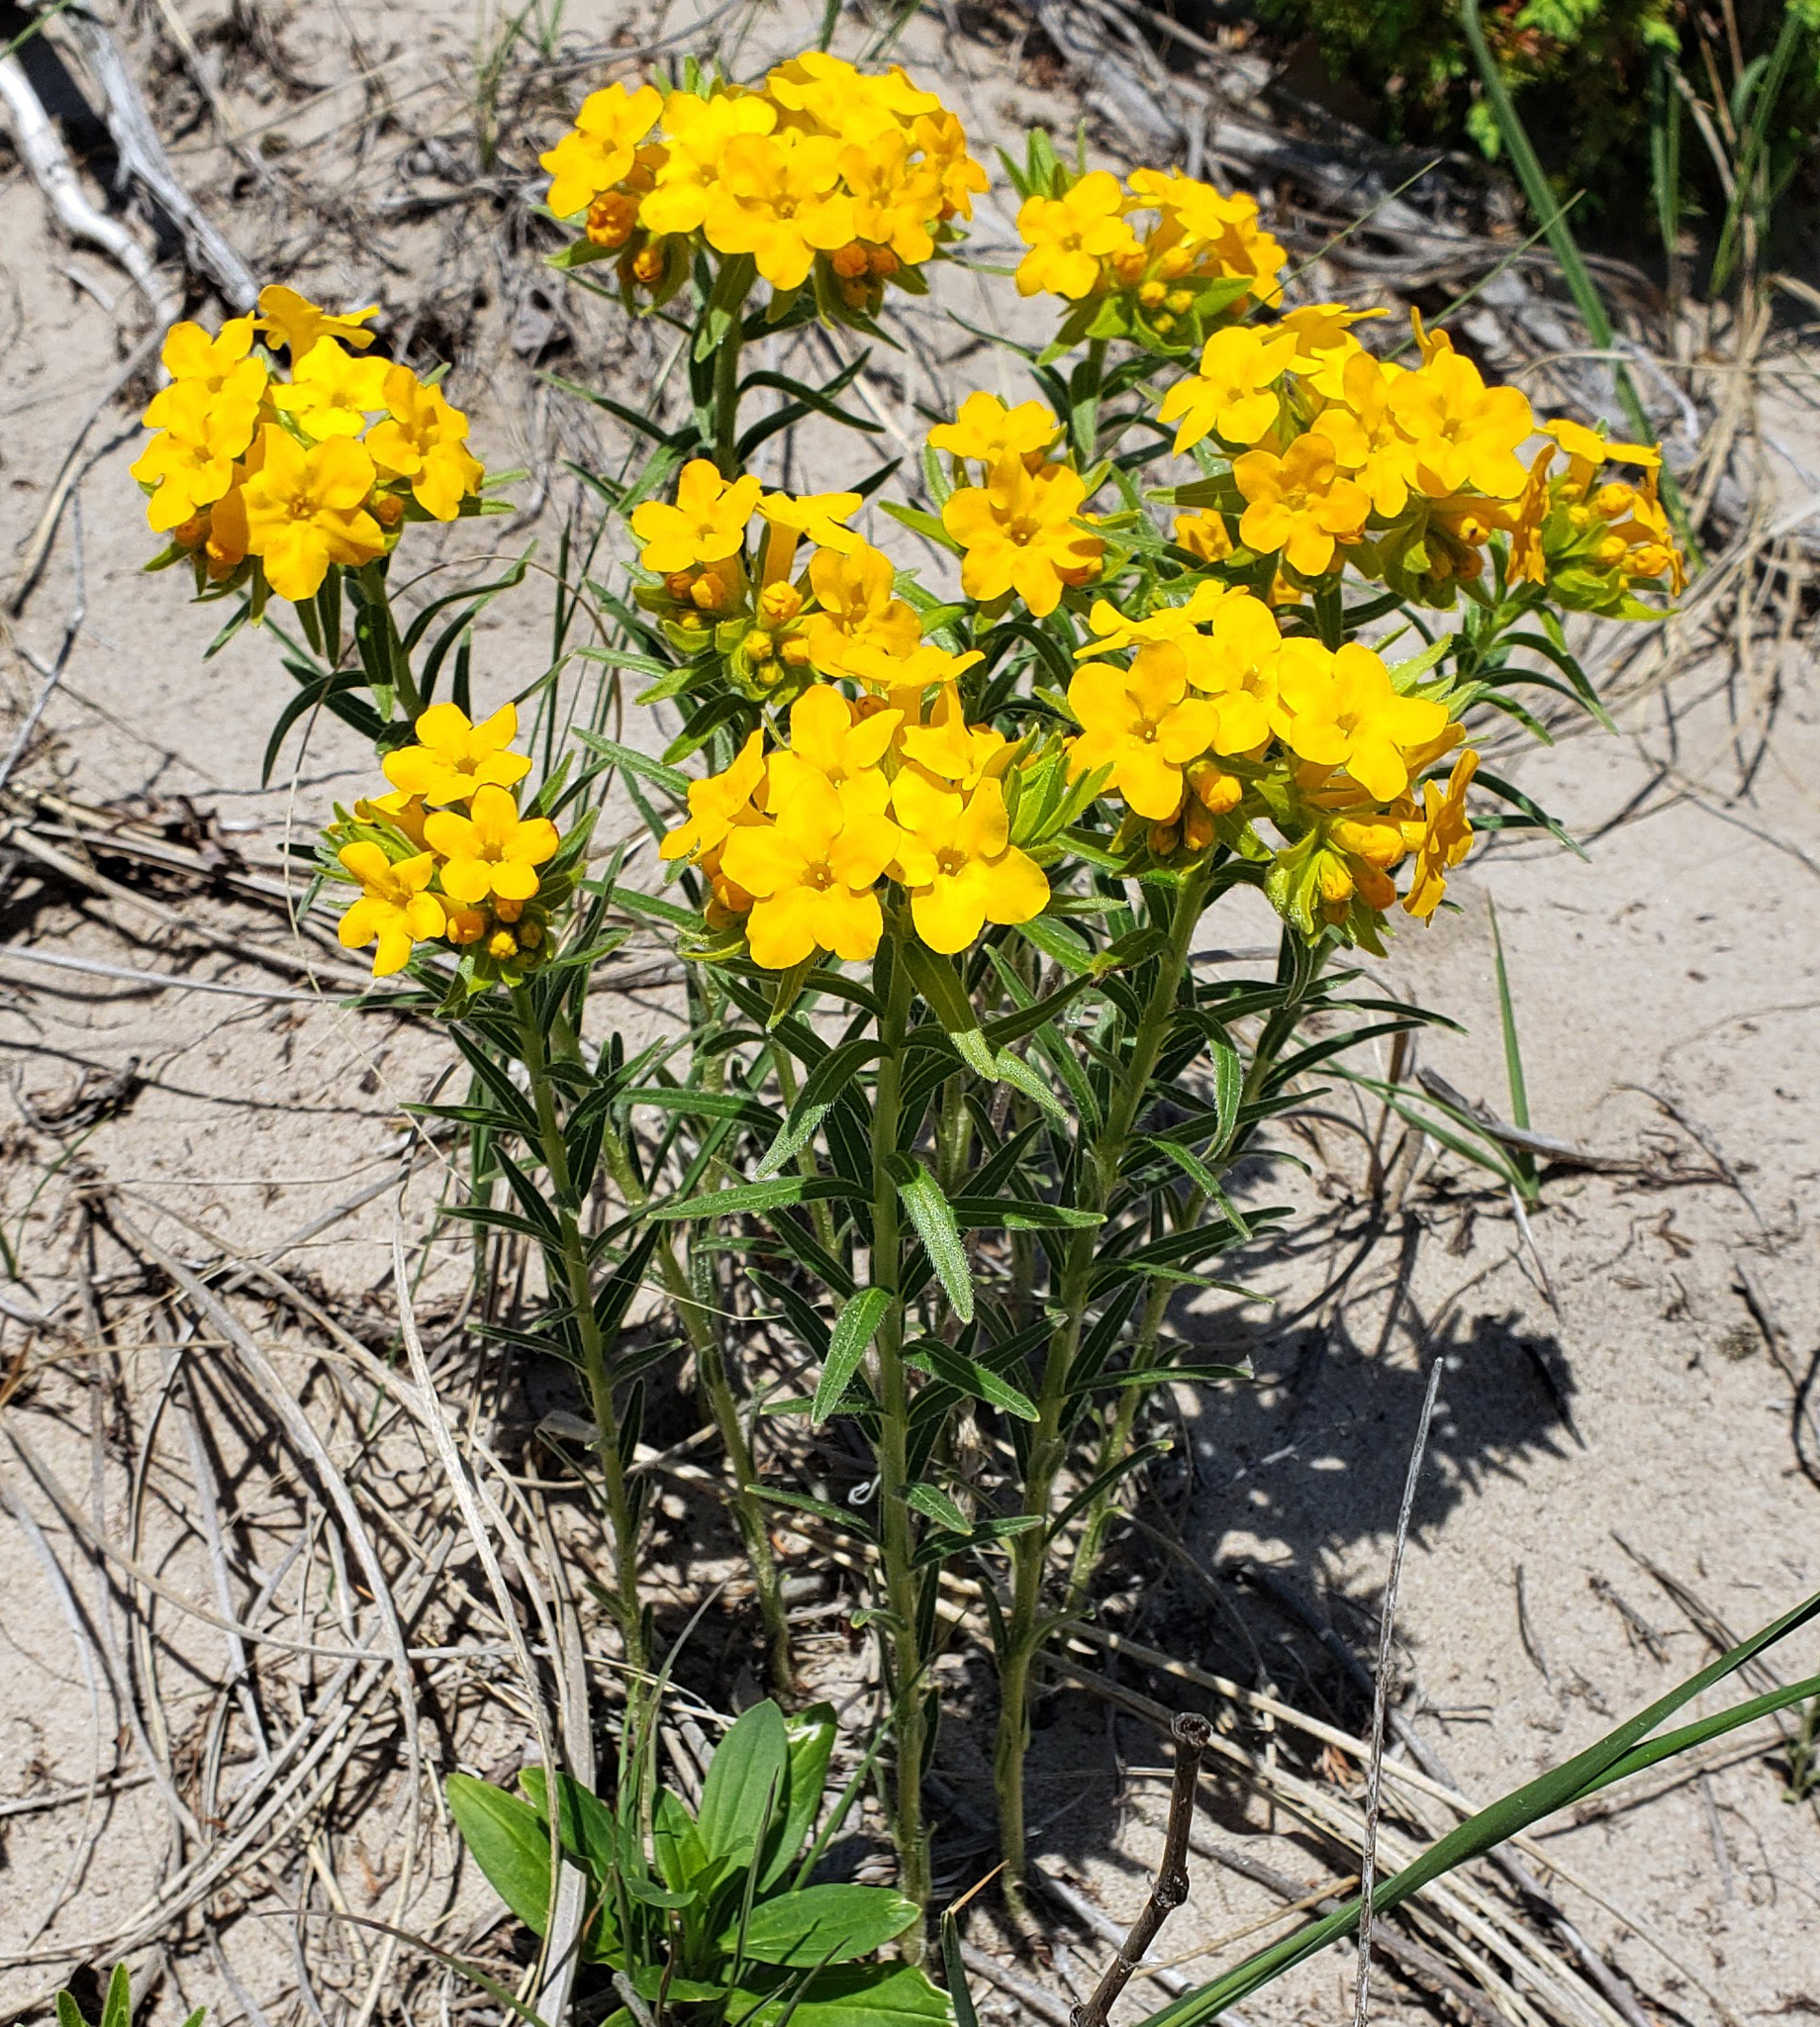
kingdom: Plantae
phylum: Tracheophyta
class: Magnoliopsida
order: Boraginales
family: Boraginaceae
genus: Lithospermum
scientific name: Lithospermum caroliniense
